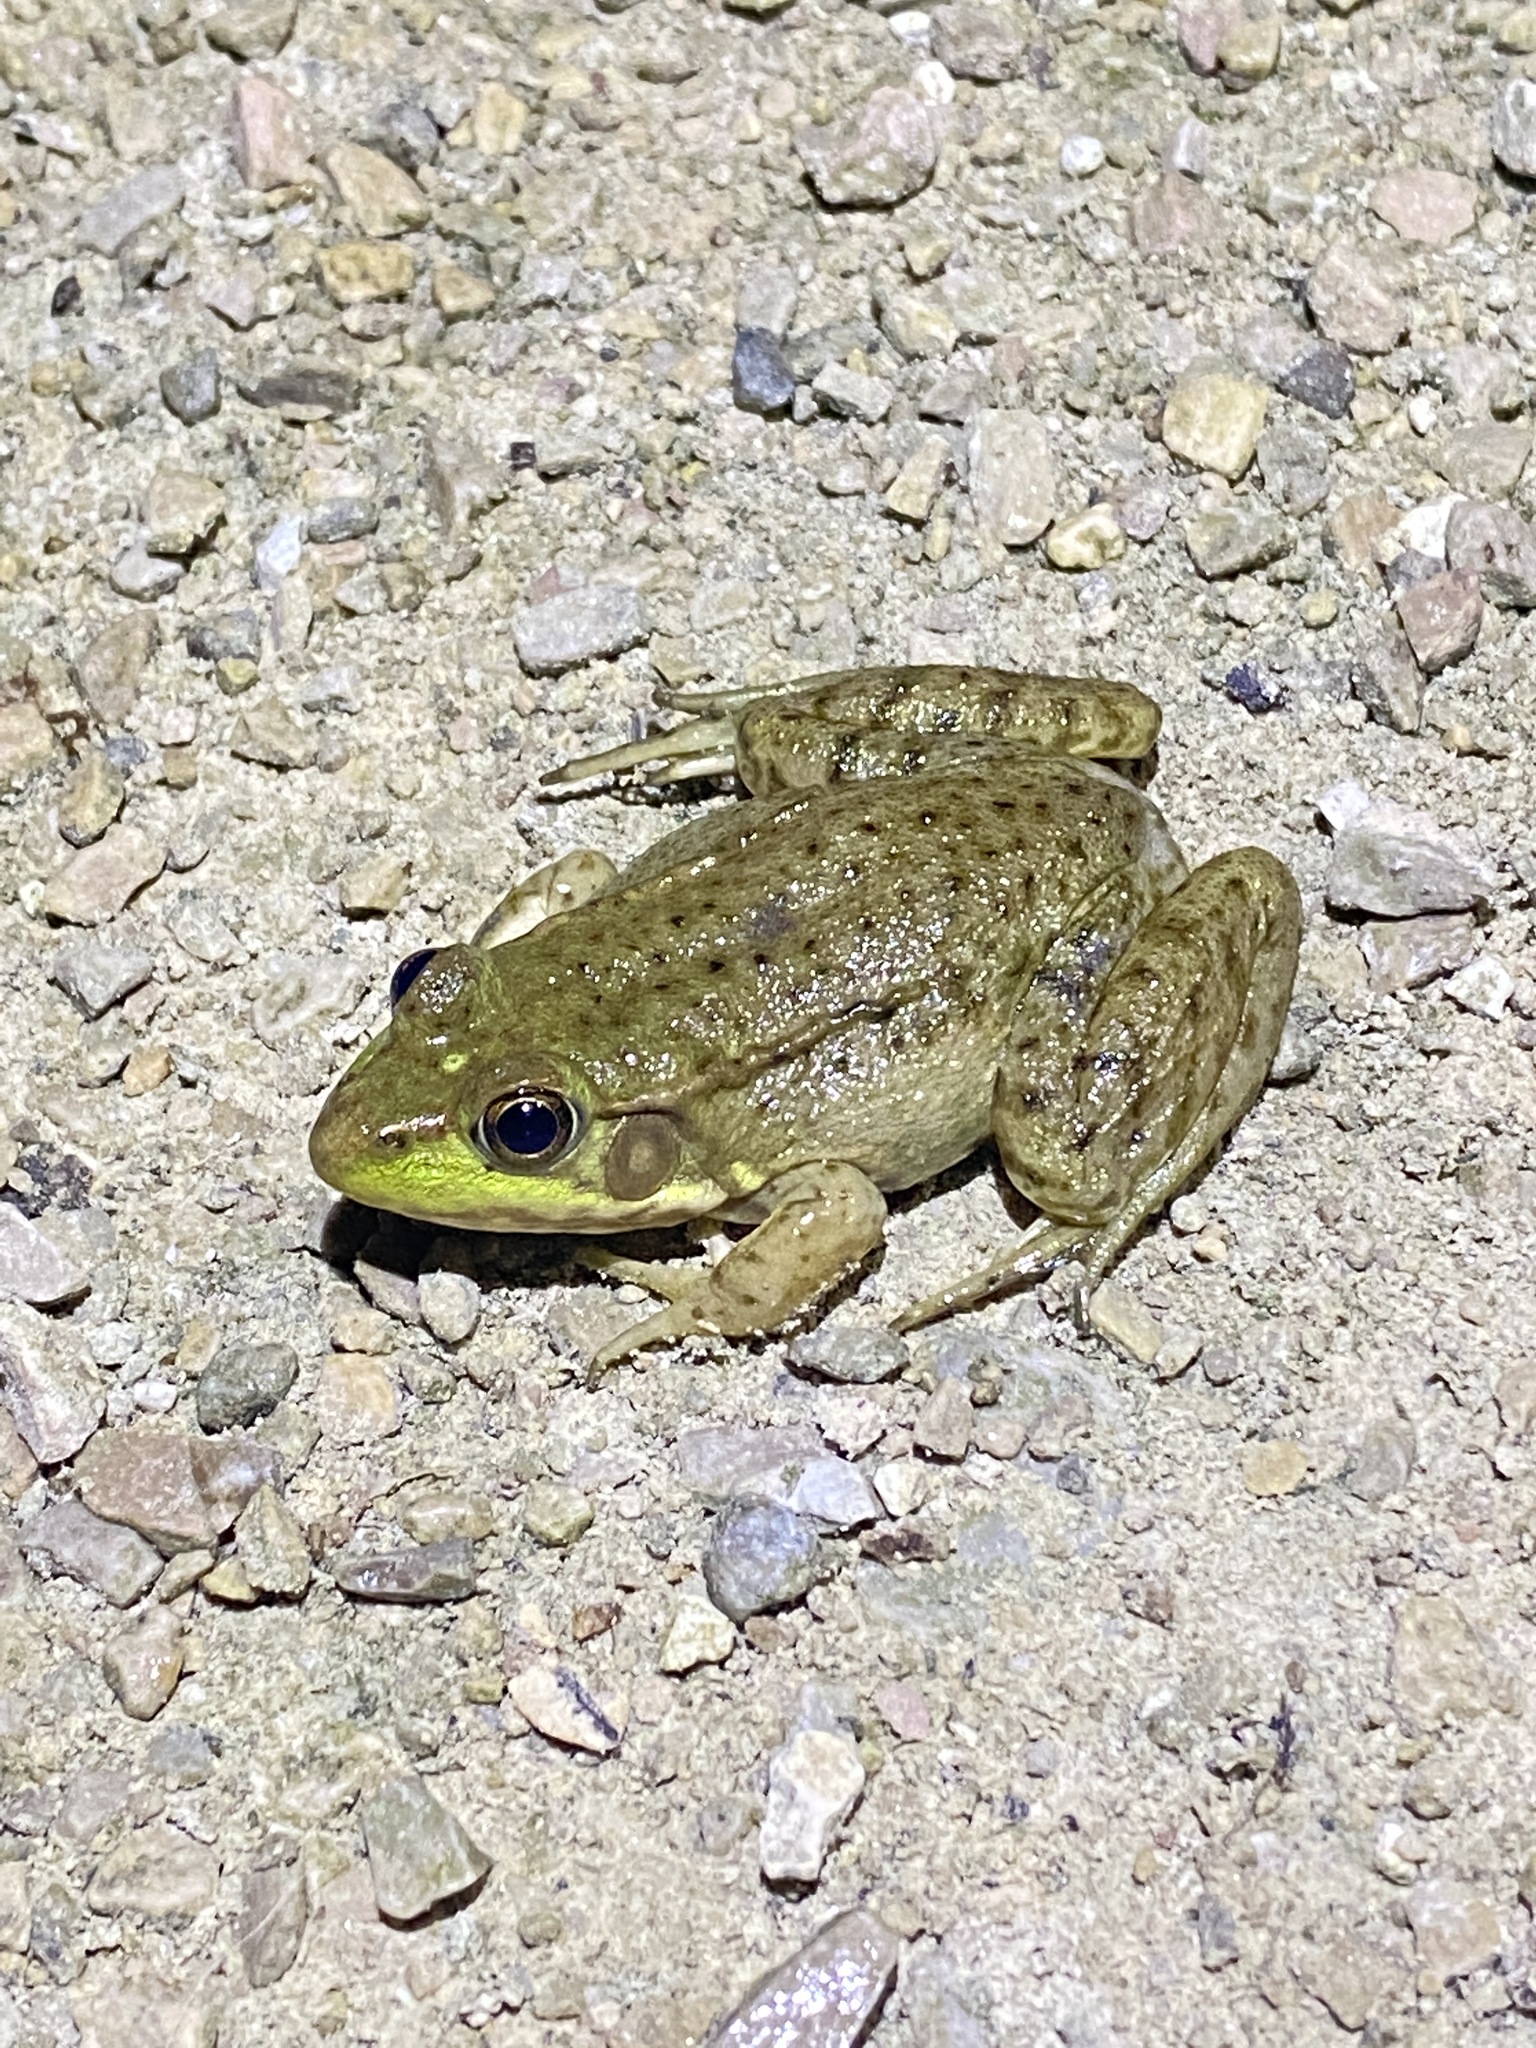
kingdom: Animalia
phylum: Chordata
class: Amphibia
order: Anura
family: Ranidae
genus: Lithobates
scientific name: Lithobates clamitans
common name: Green frog
